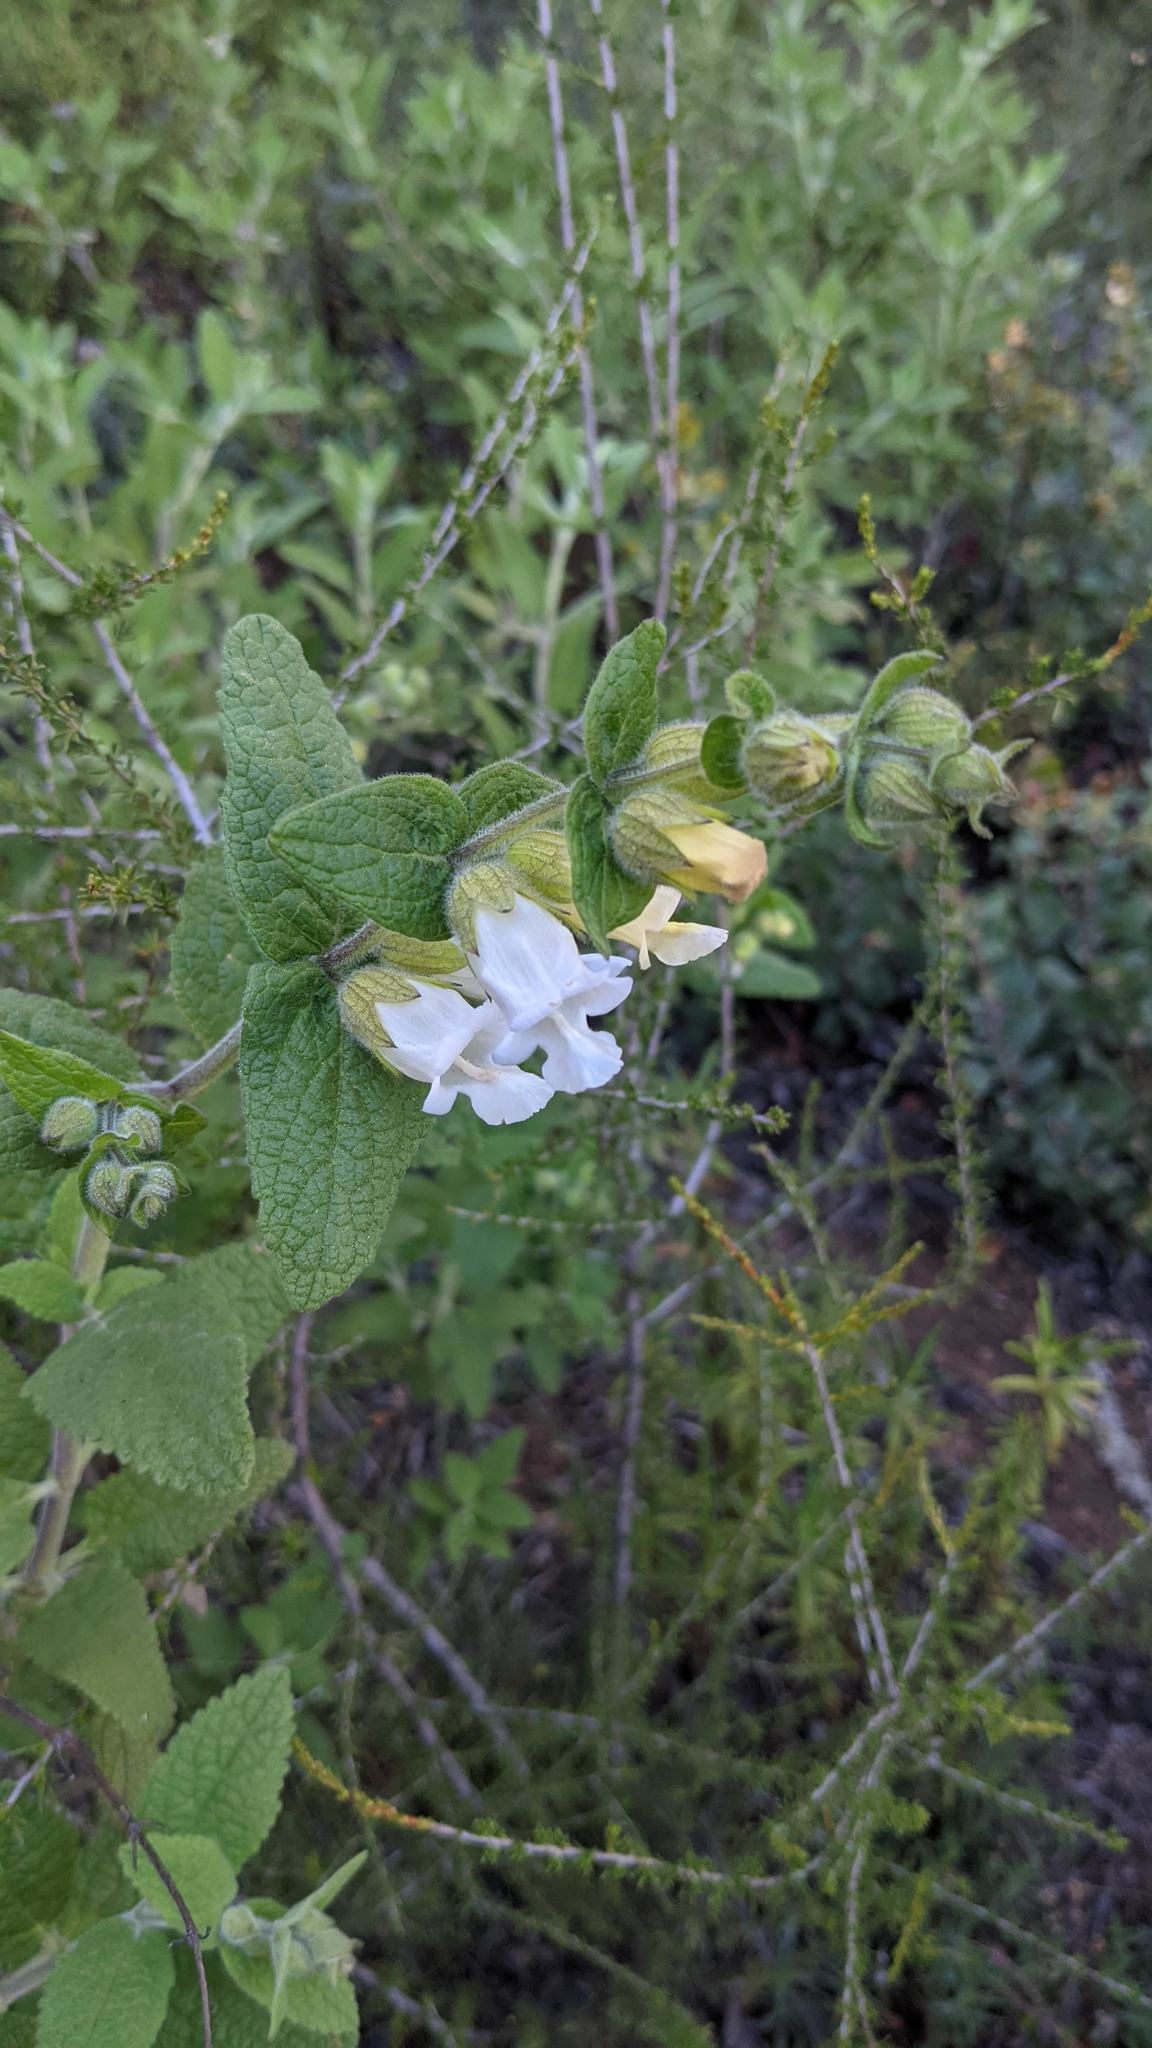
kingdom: Plantae
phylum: Tracheophyta
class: Magnoliopsida
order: Lamiales
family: Lamiaceae
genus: Lepechinia
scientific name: Lepechinia calycina
